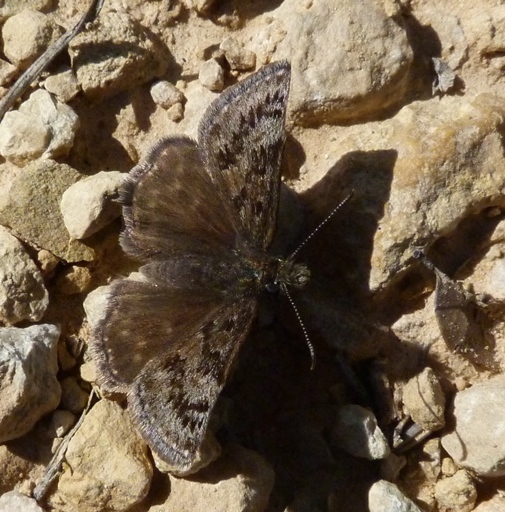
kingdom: Animalia
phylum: Arthropoda
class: Insecta
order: Lepidoptera
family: Hesperiidae
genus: Erynnis
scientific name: Erynnis tages
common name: Dingy skipper
